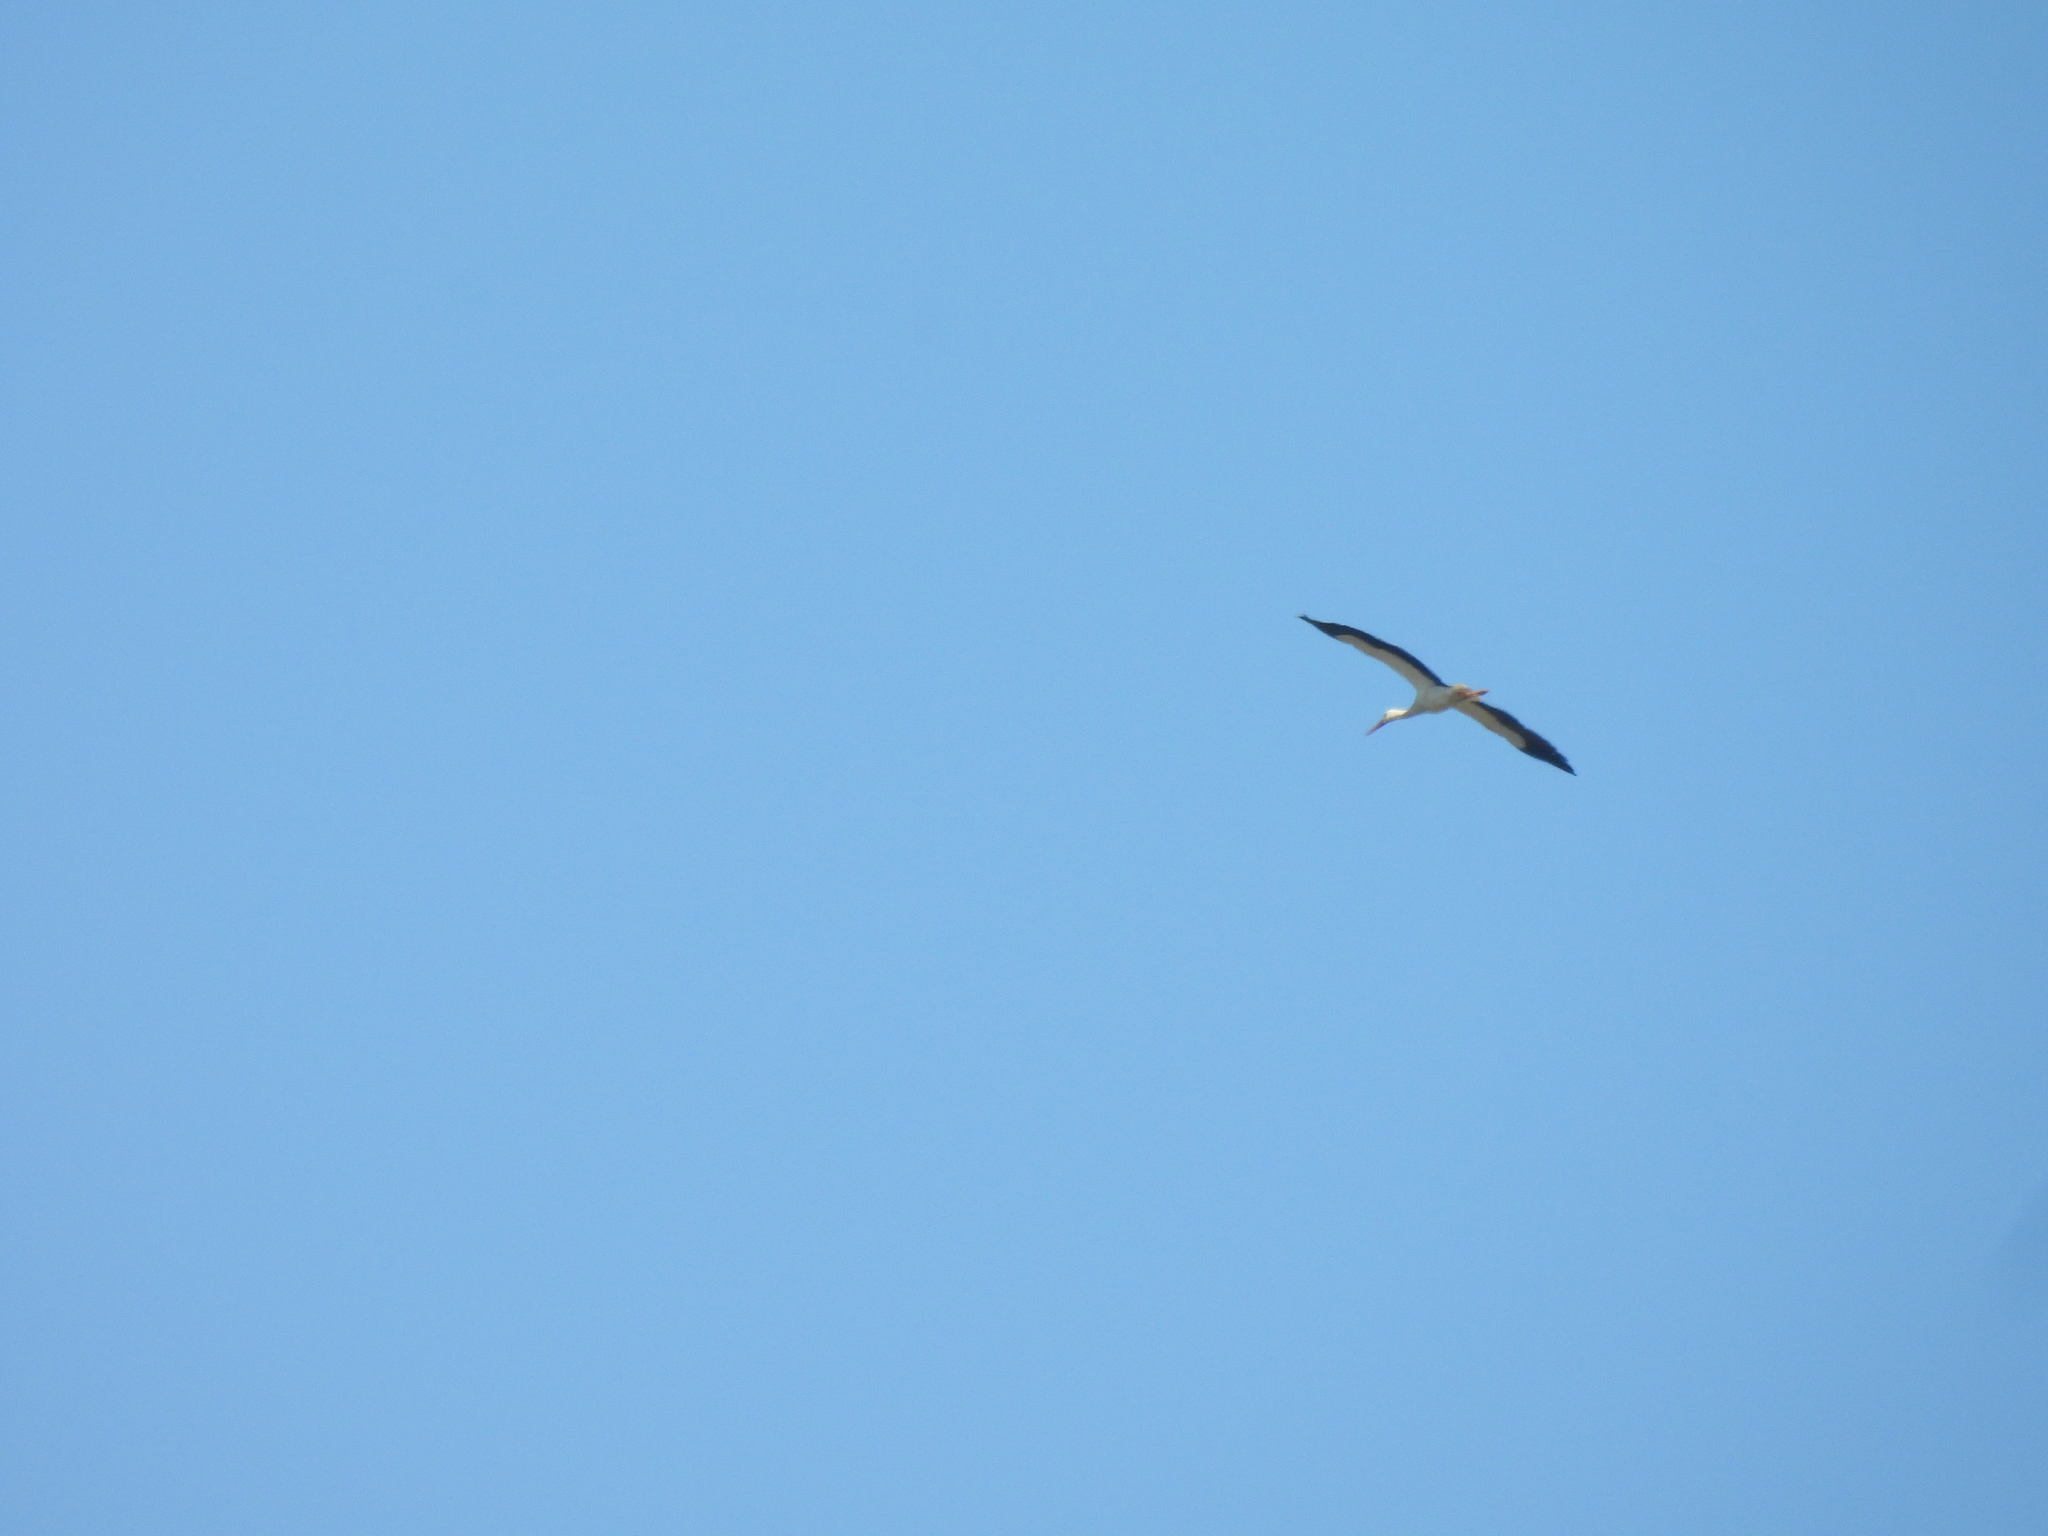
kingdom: Animalia
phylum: Chordata
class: Aves
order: Ciconiiformes
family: Ciconiidae
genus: Ciconia
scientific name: Ciconia ciconia
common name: White stork
